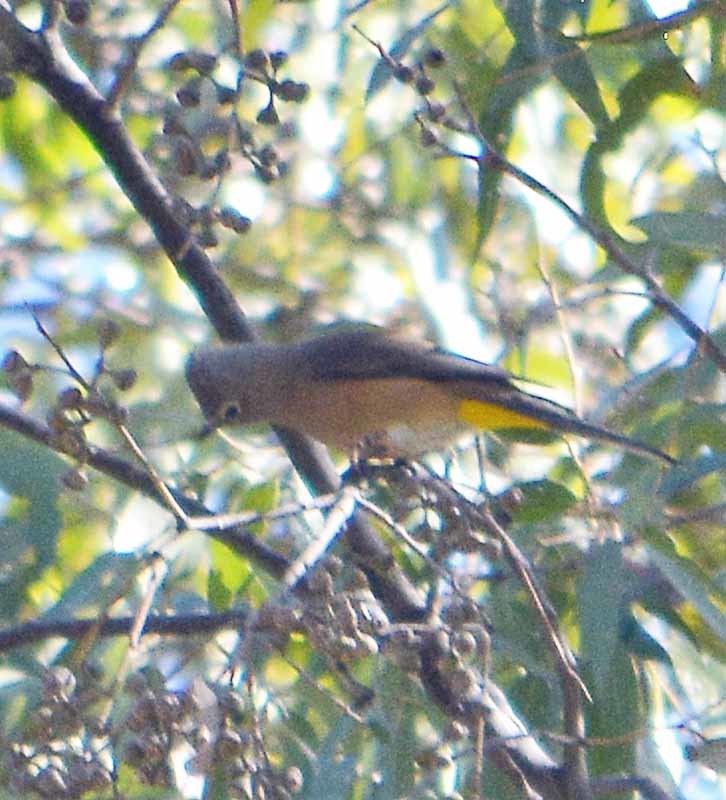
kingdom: Animalia
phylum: Chordata
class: Aves
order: Passeriformes
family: Ptilogonatidae
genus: Ptilogonys
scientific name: Ptilogonys cinereus
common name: Gray silky-flycatcher
